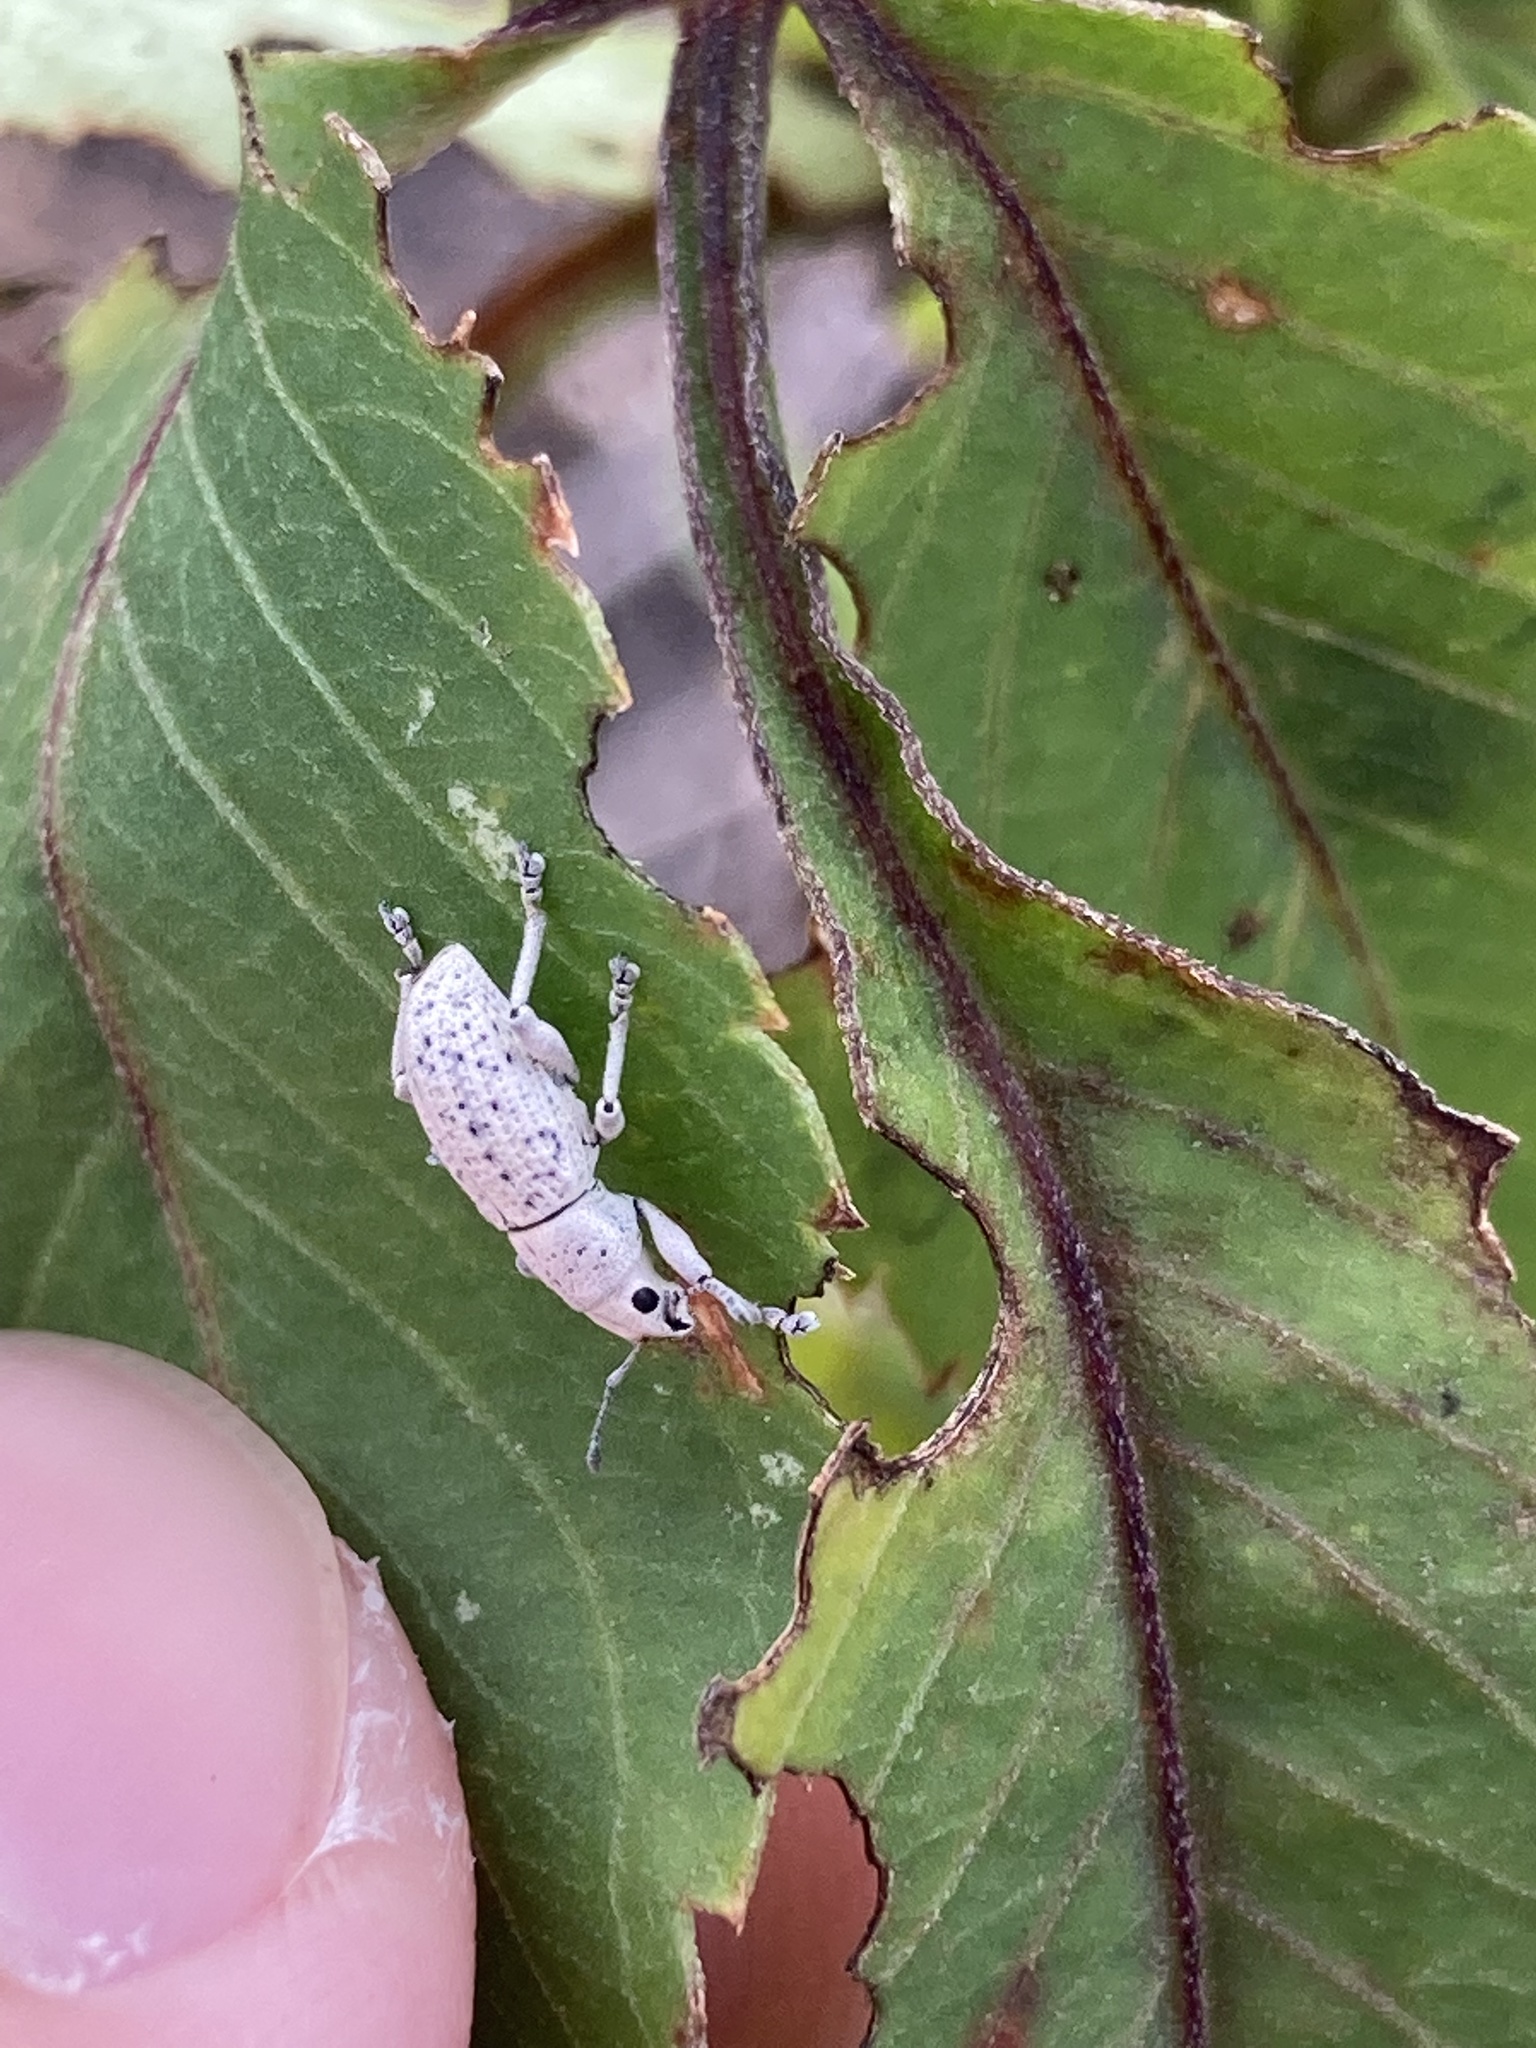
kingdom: Animalia
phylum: Arthropoda
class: Insecta
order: Coleoptera
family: Curculionidae
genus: Artipus
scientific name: Artipus floridanus
